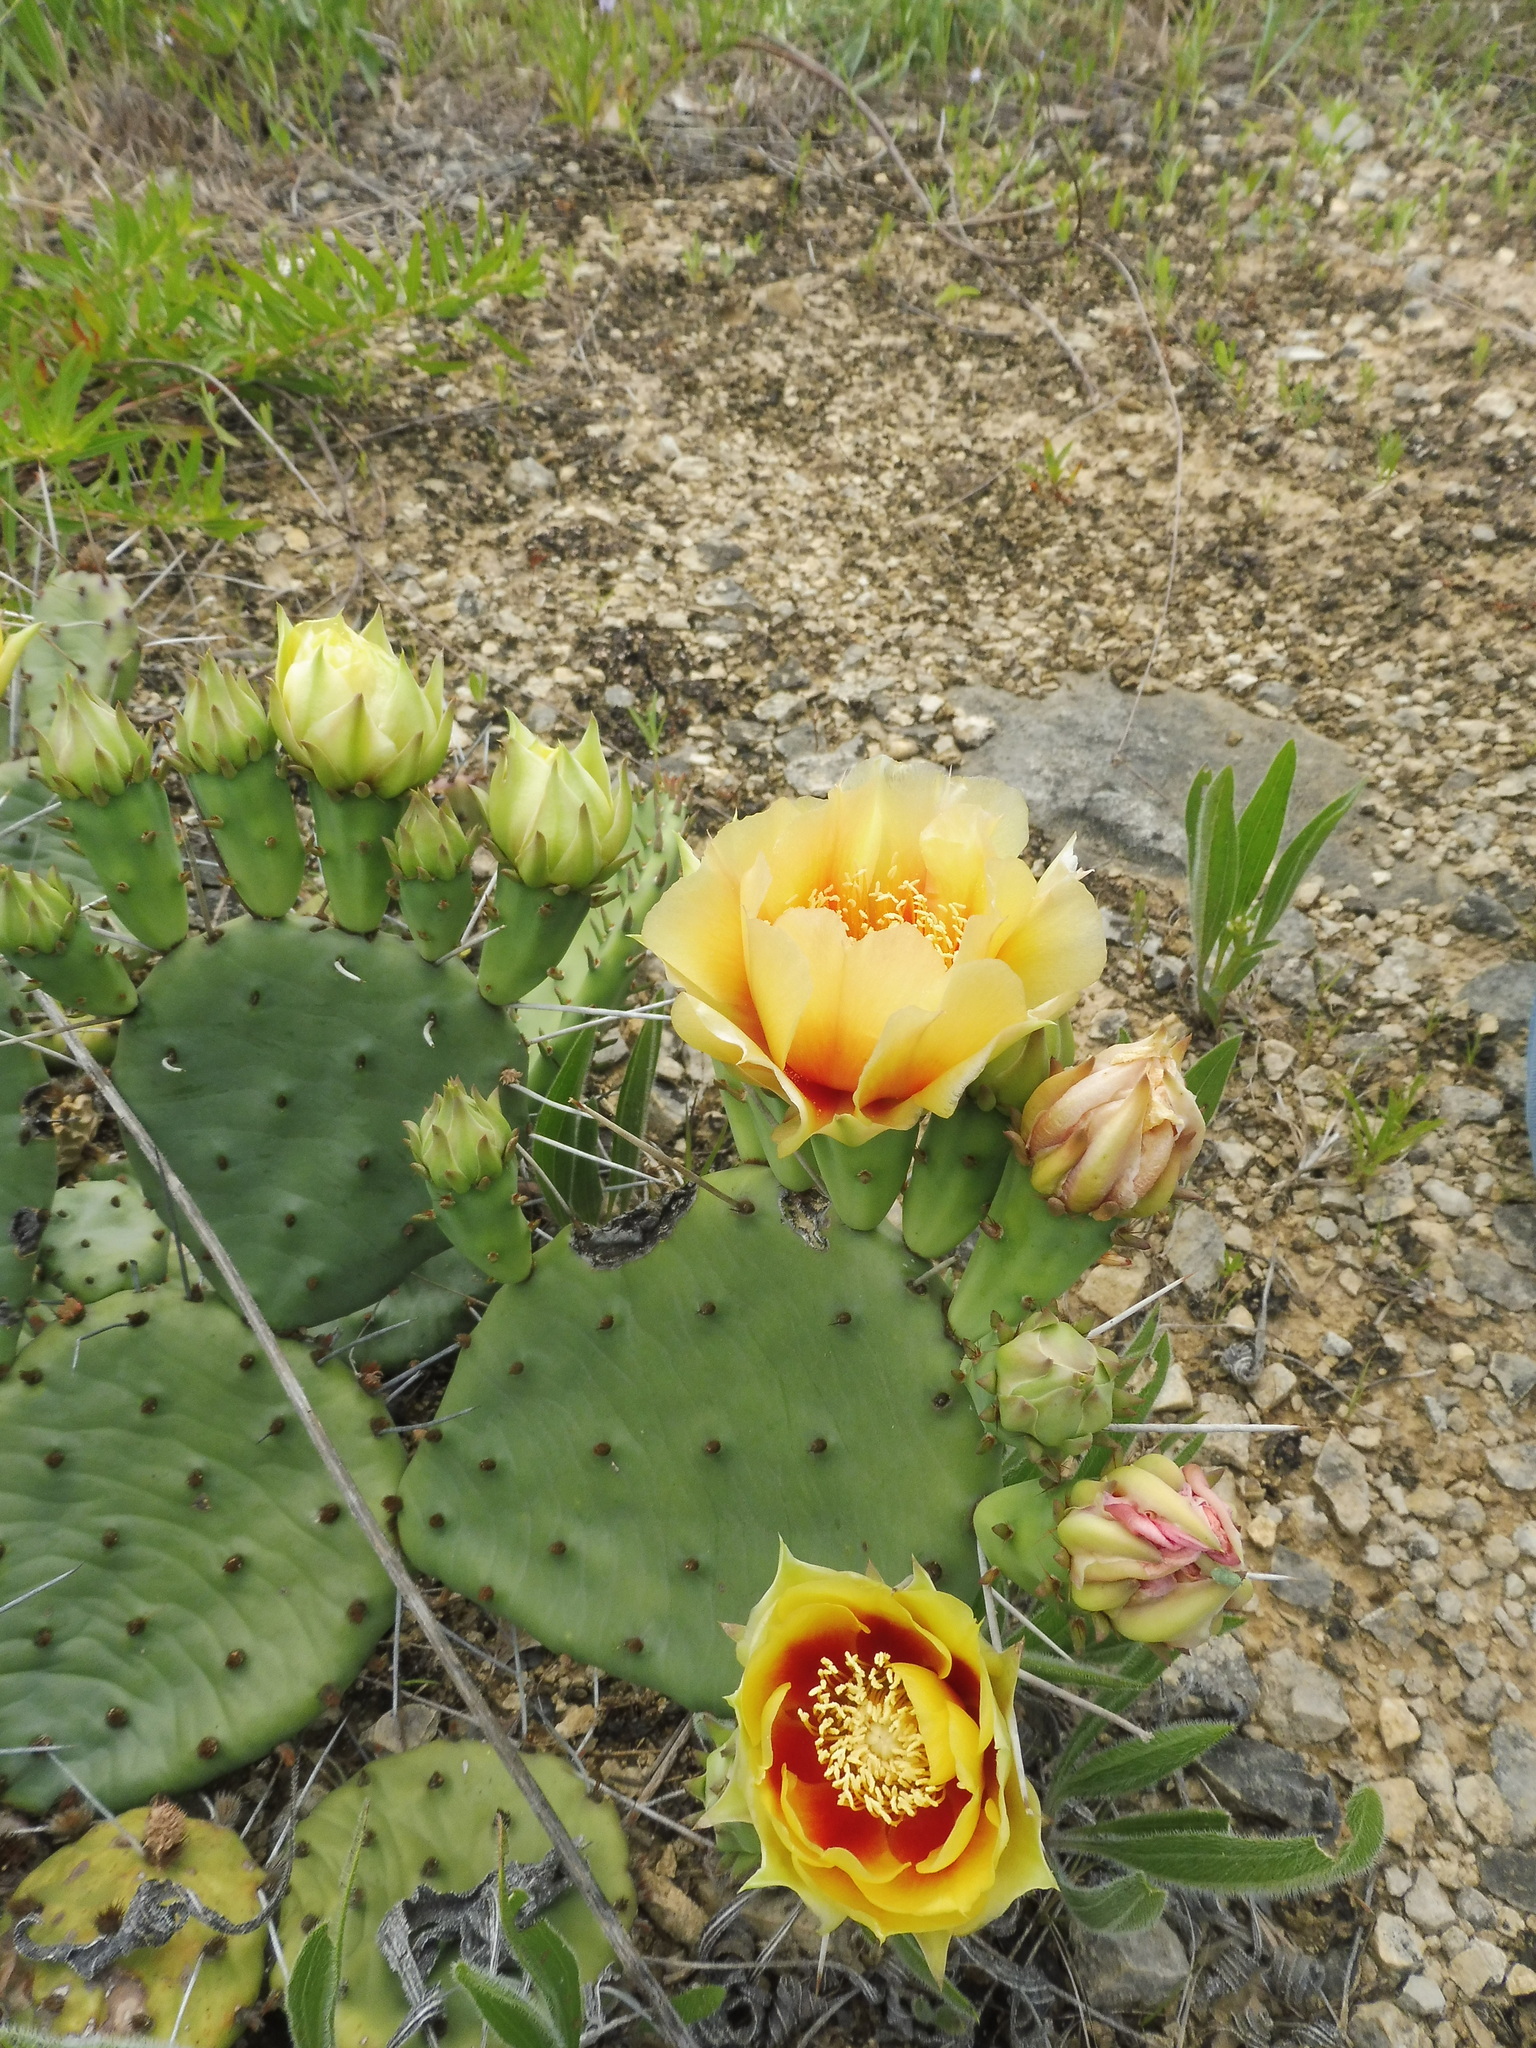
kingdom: Plantae
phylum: Tracheophyta
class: Magnoliopsida
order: Caryophyllales
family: Cactaceae
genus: Opuntia
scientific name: Opuntia humifusa
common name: Eastern prickly-pear
